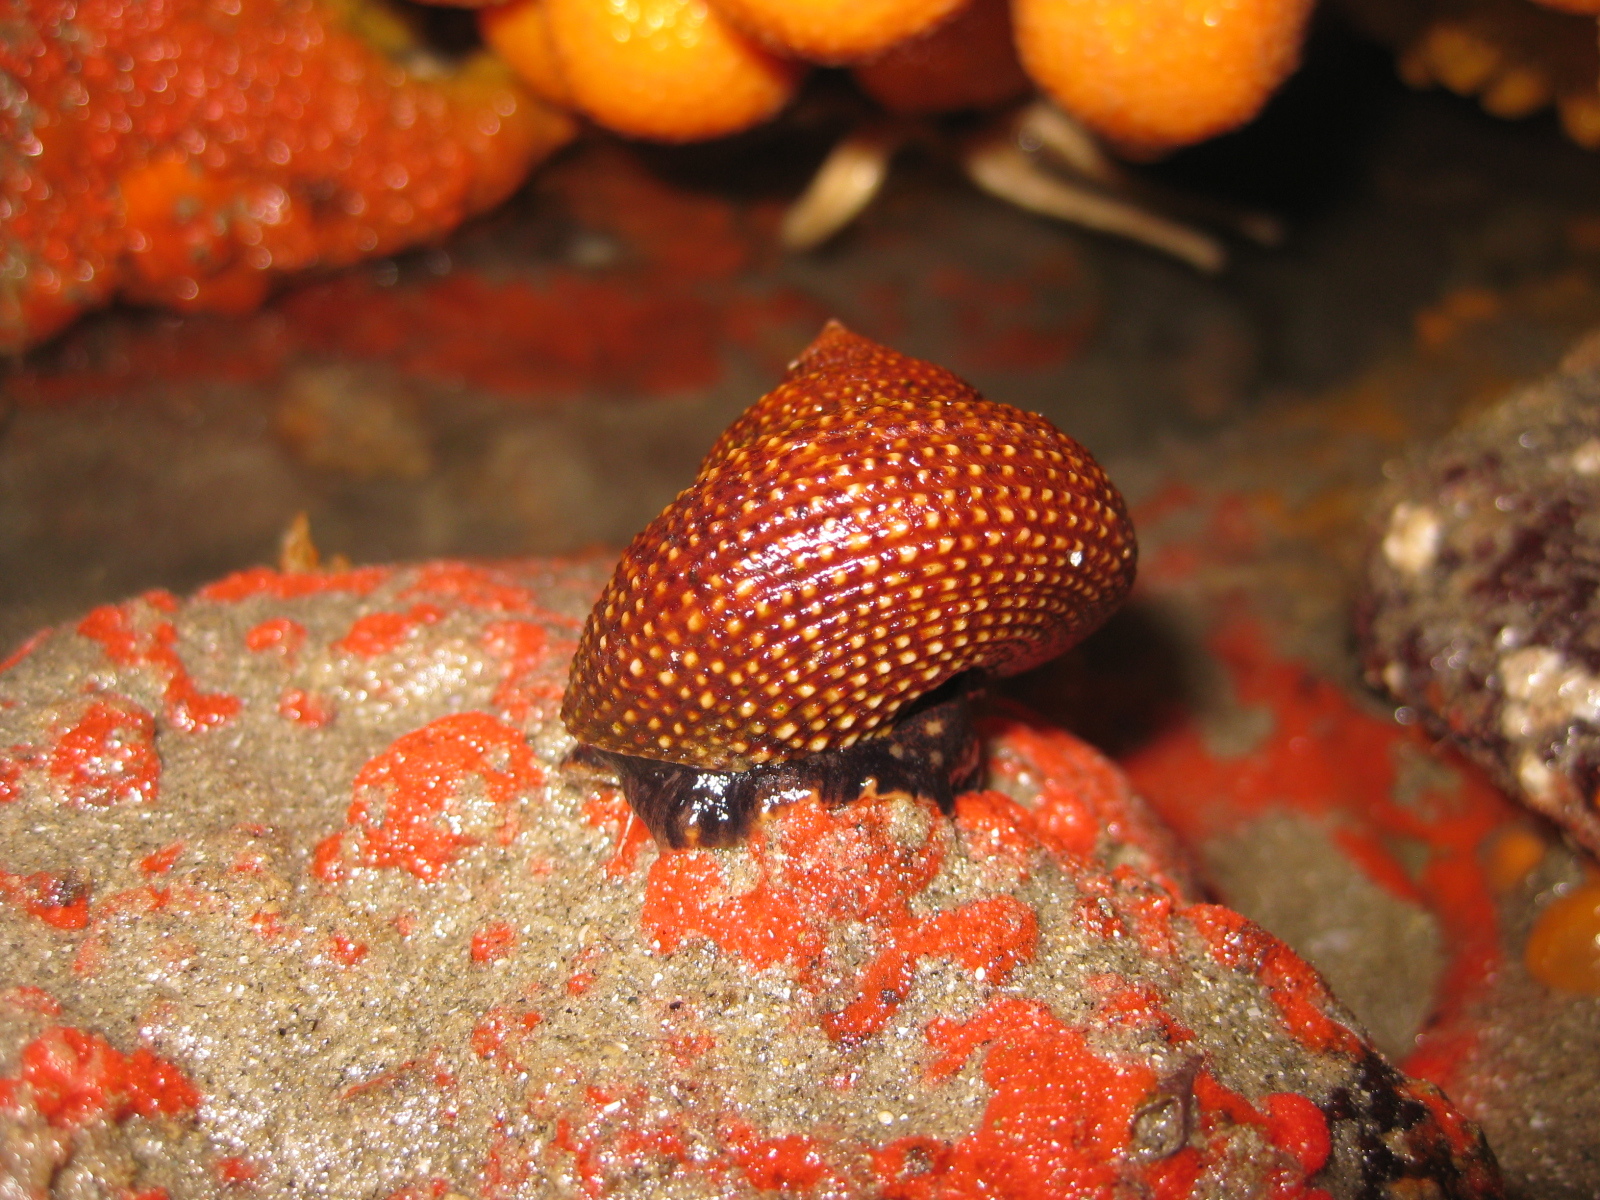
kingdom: Animalia
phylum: Mollusca
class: Gastropoda
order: Trochida
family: Calliostomatidae
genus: Maurea
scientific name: Maurea punctulata
